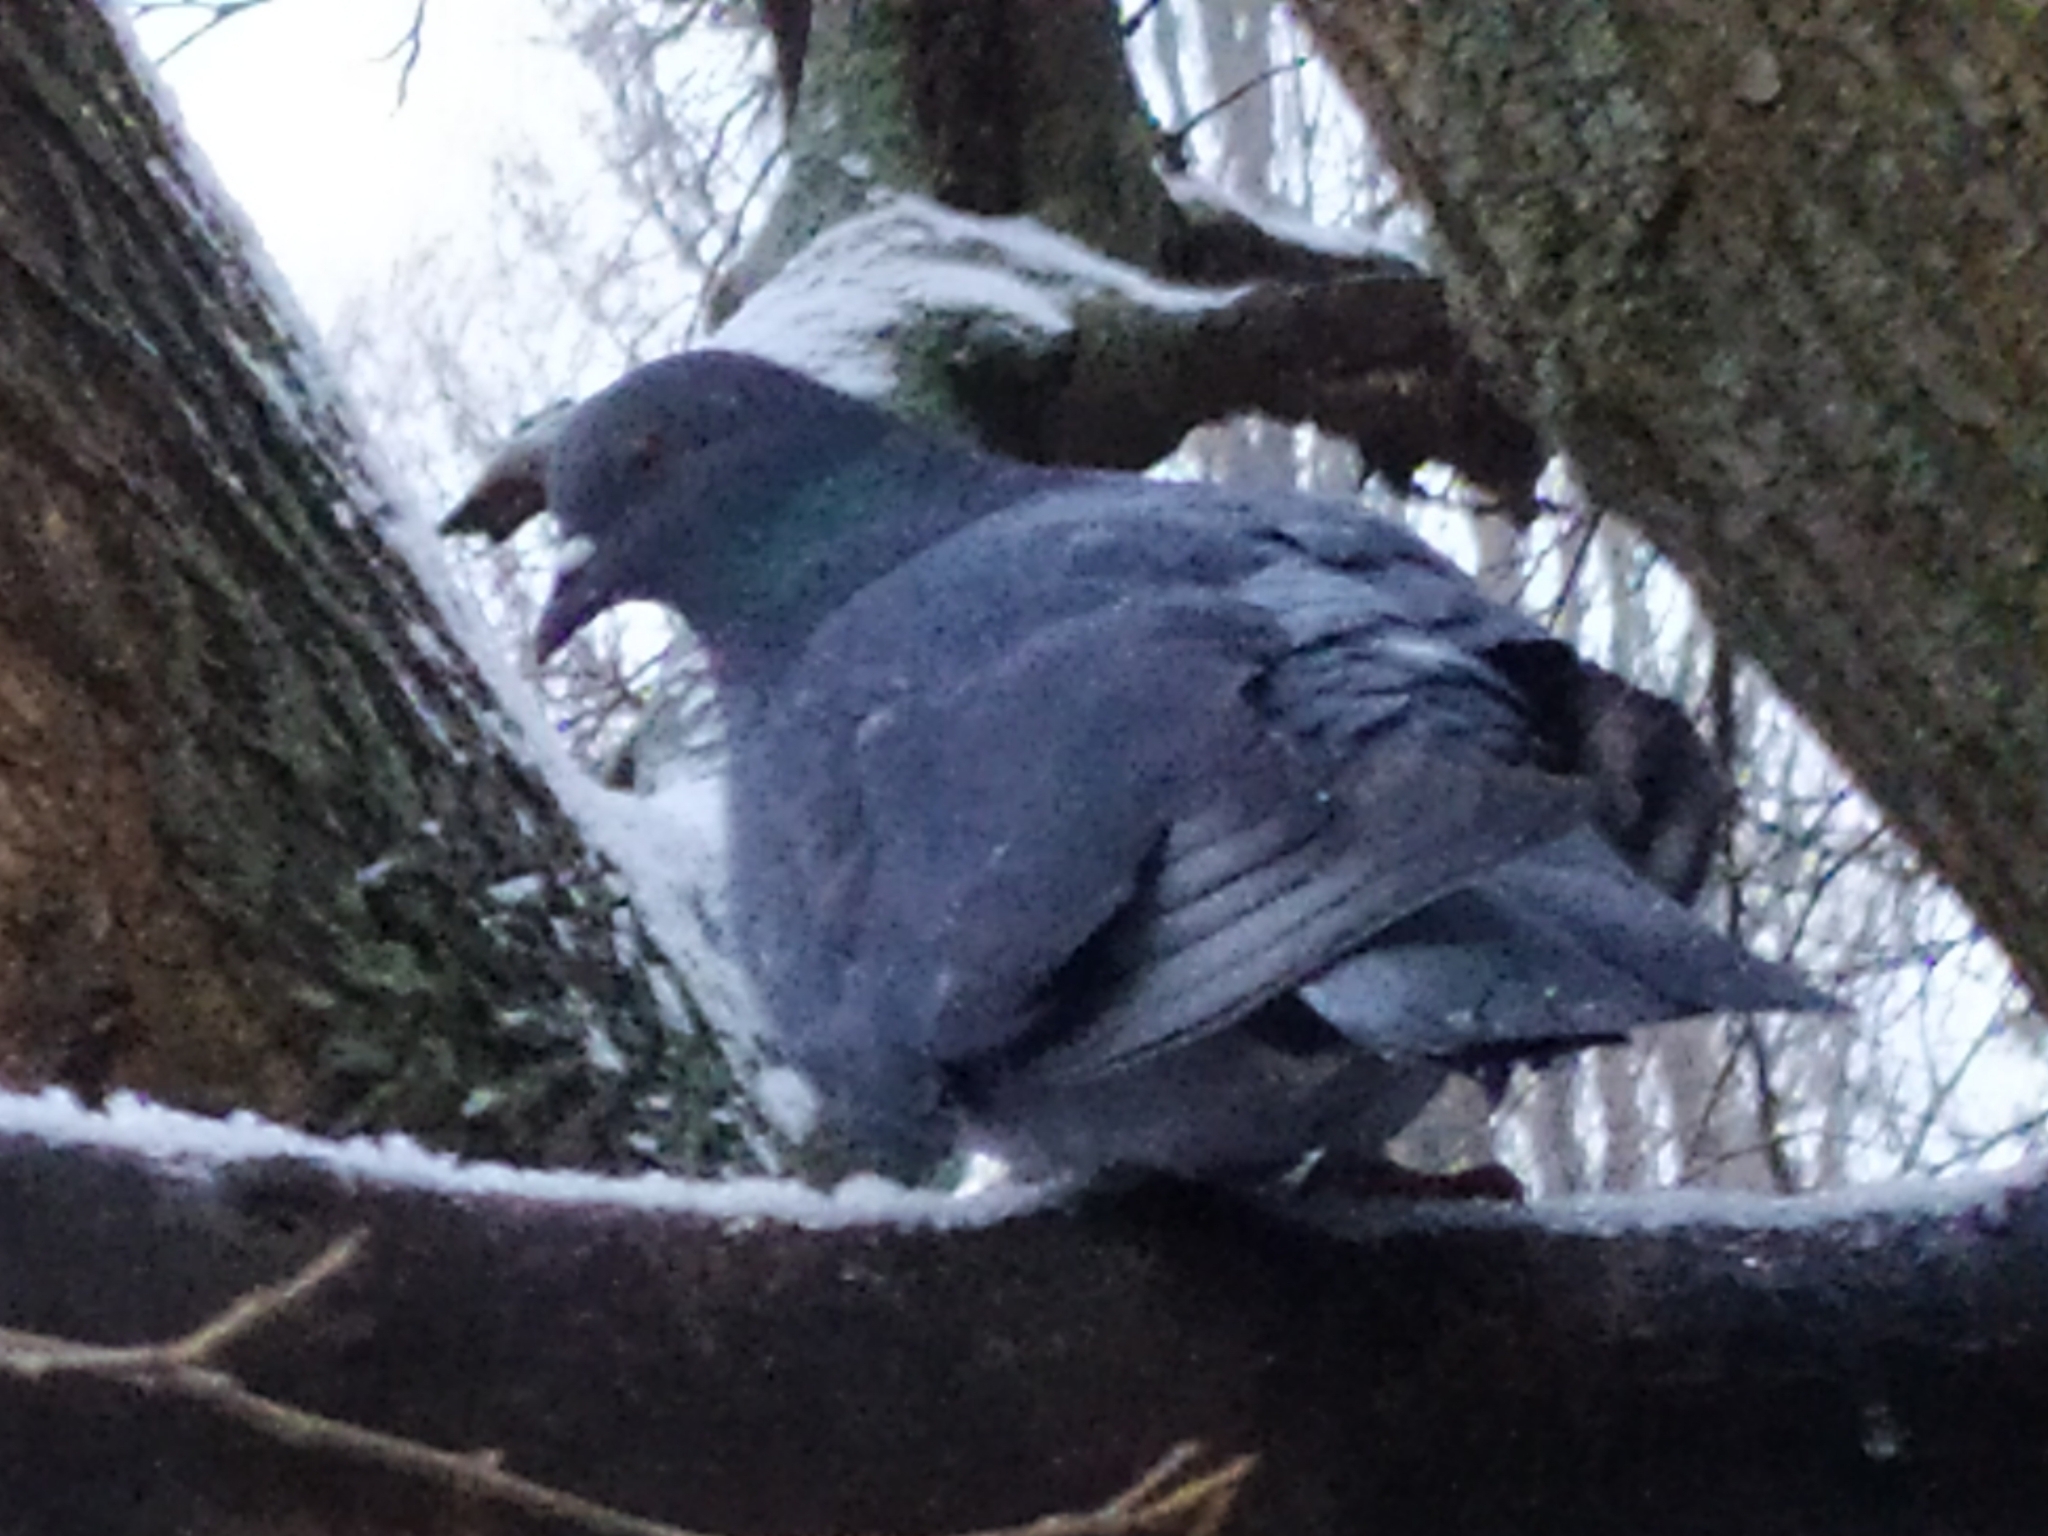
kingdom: Animalia
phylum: Chordata
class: Aves
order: Columbiformes
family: Columbidae
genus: Columba
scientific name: Columba livia
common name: Rock pigeon
